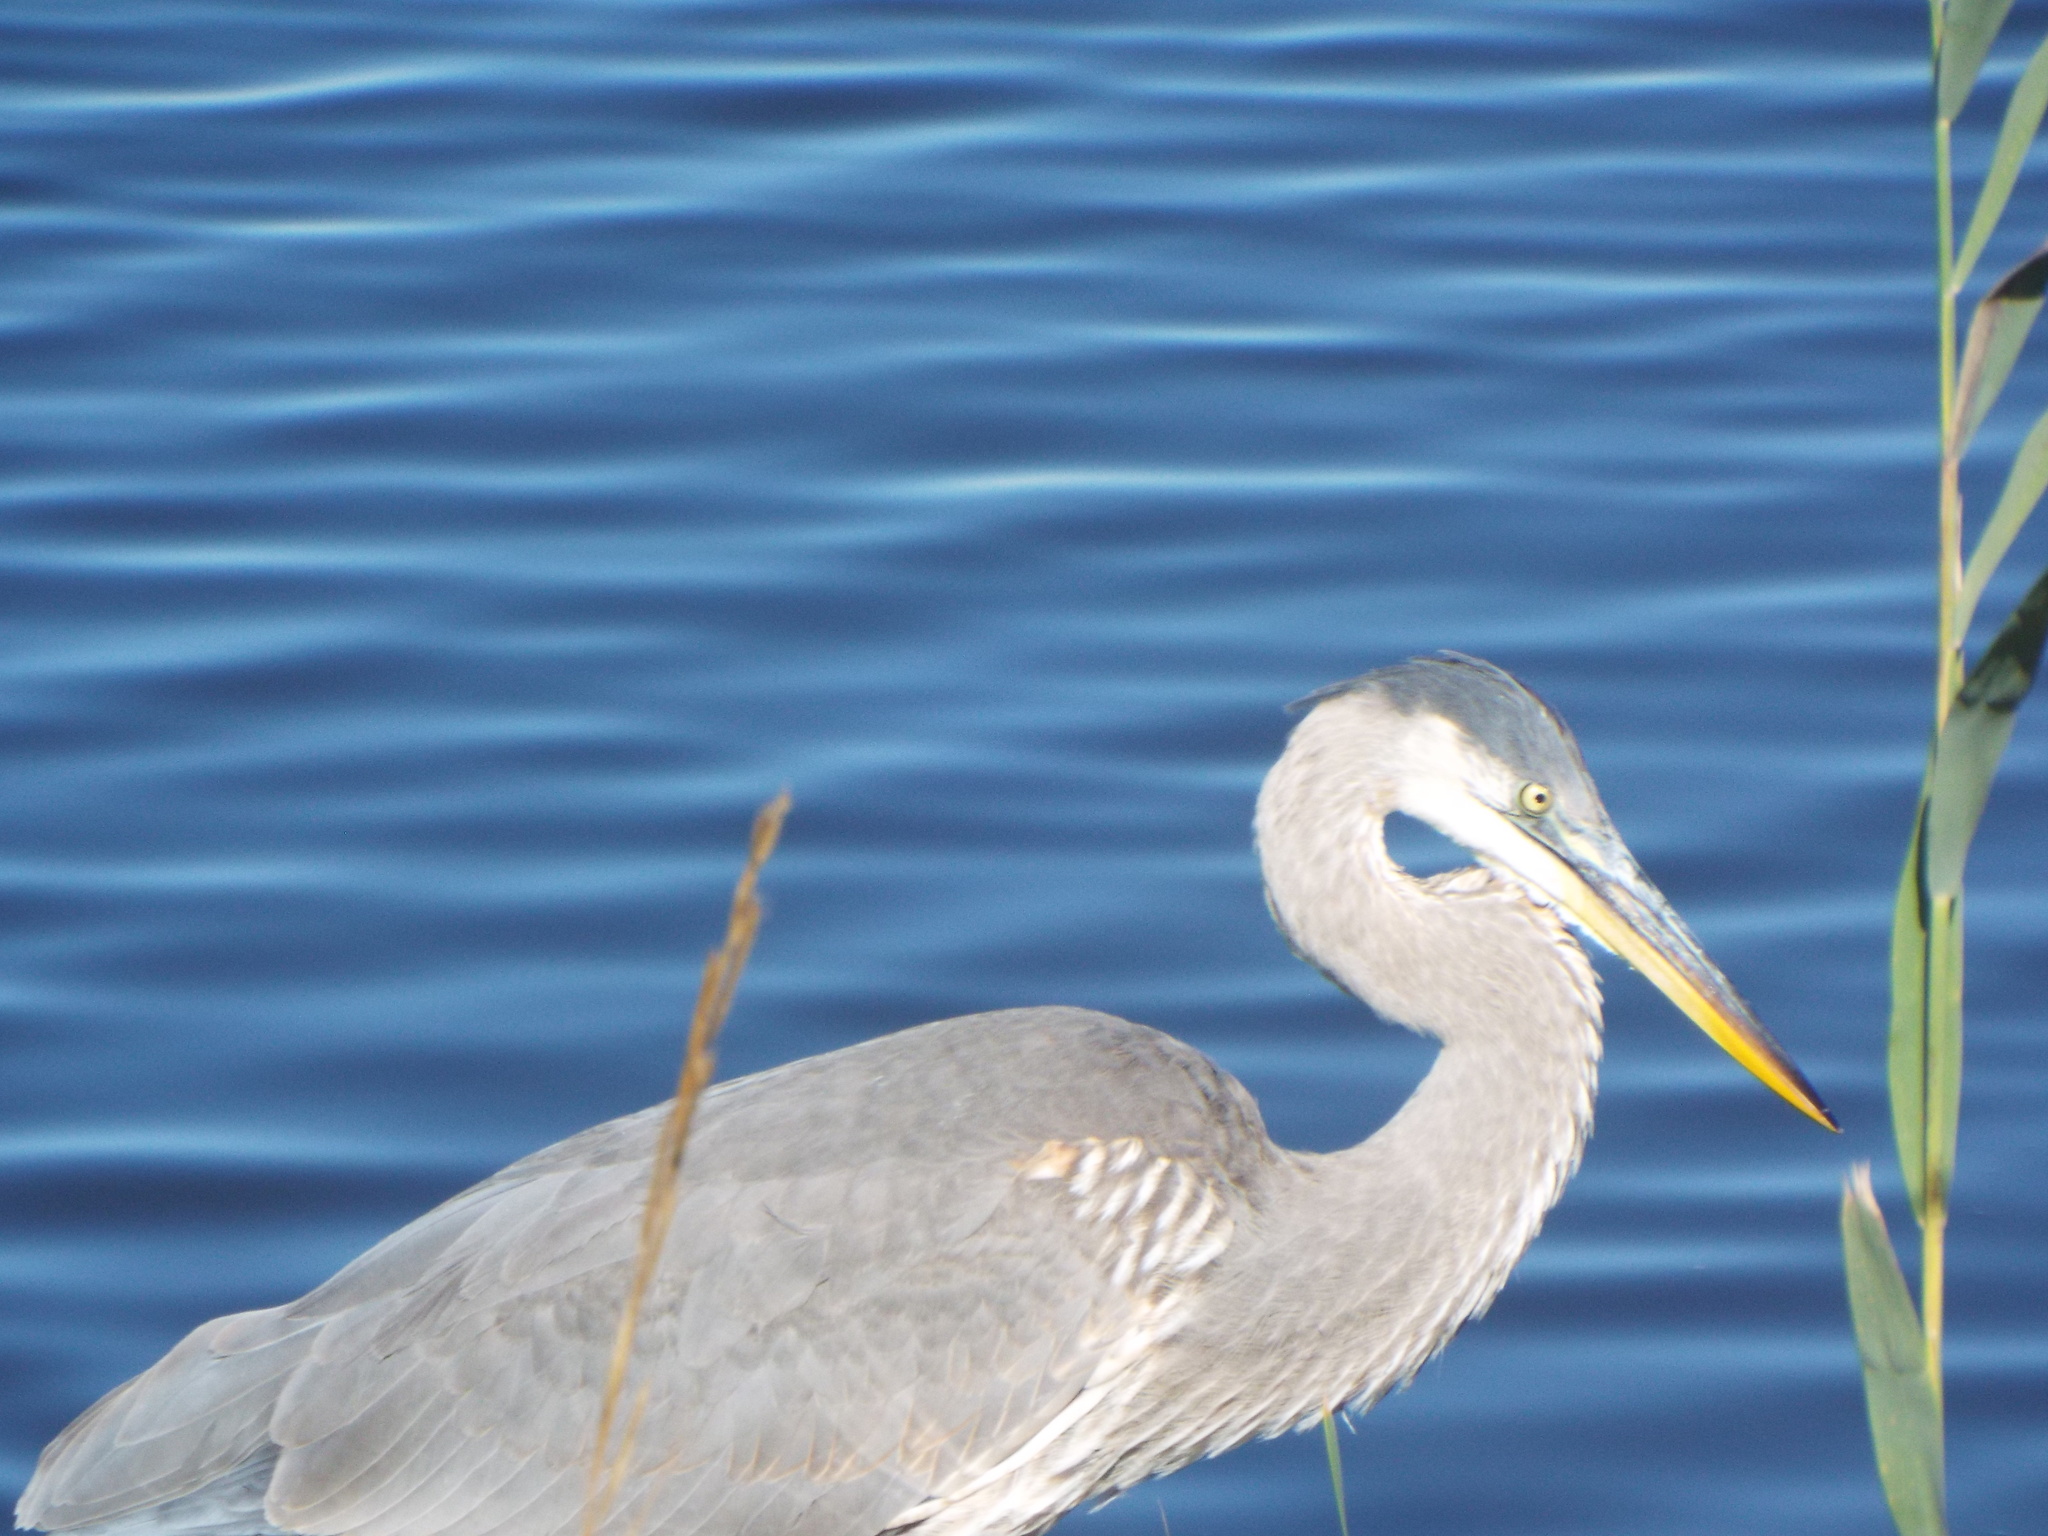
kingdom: Animalia
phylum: Chordata
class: Aves
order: Pelecaniformes
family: Ardeidae
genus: Ardea
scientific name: Ardea herodias
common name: Great blue heron
